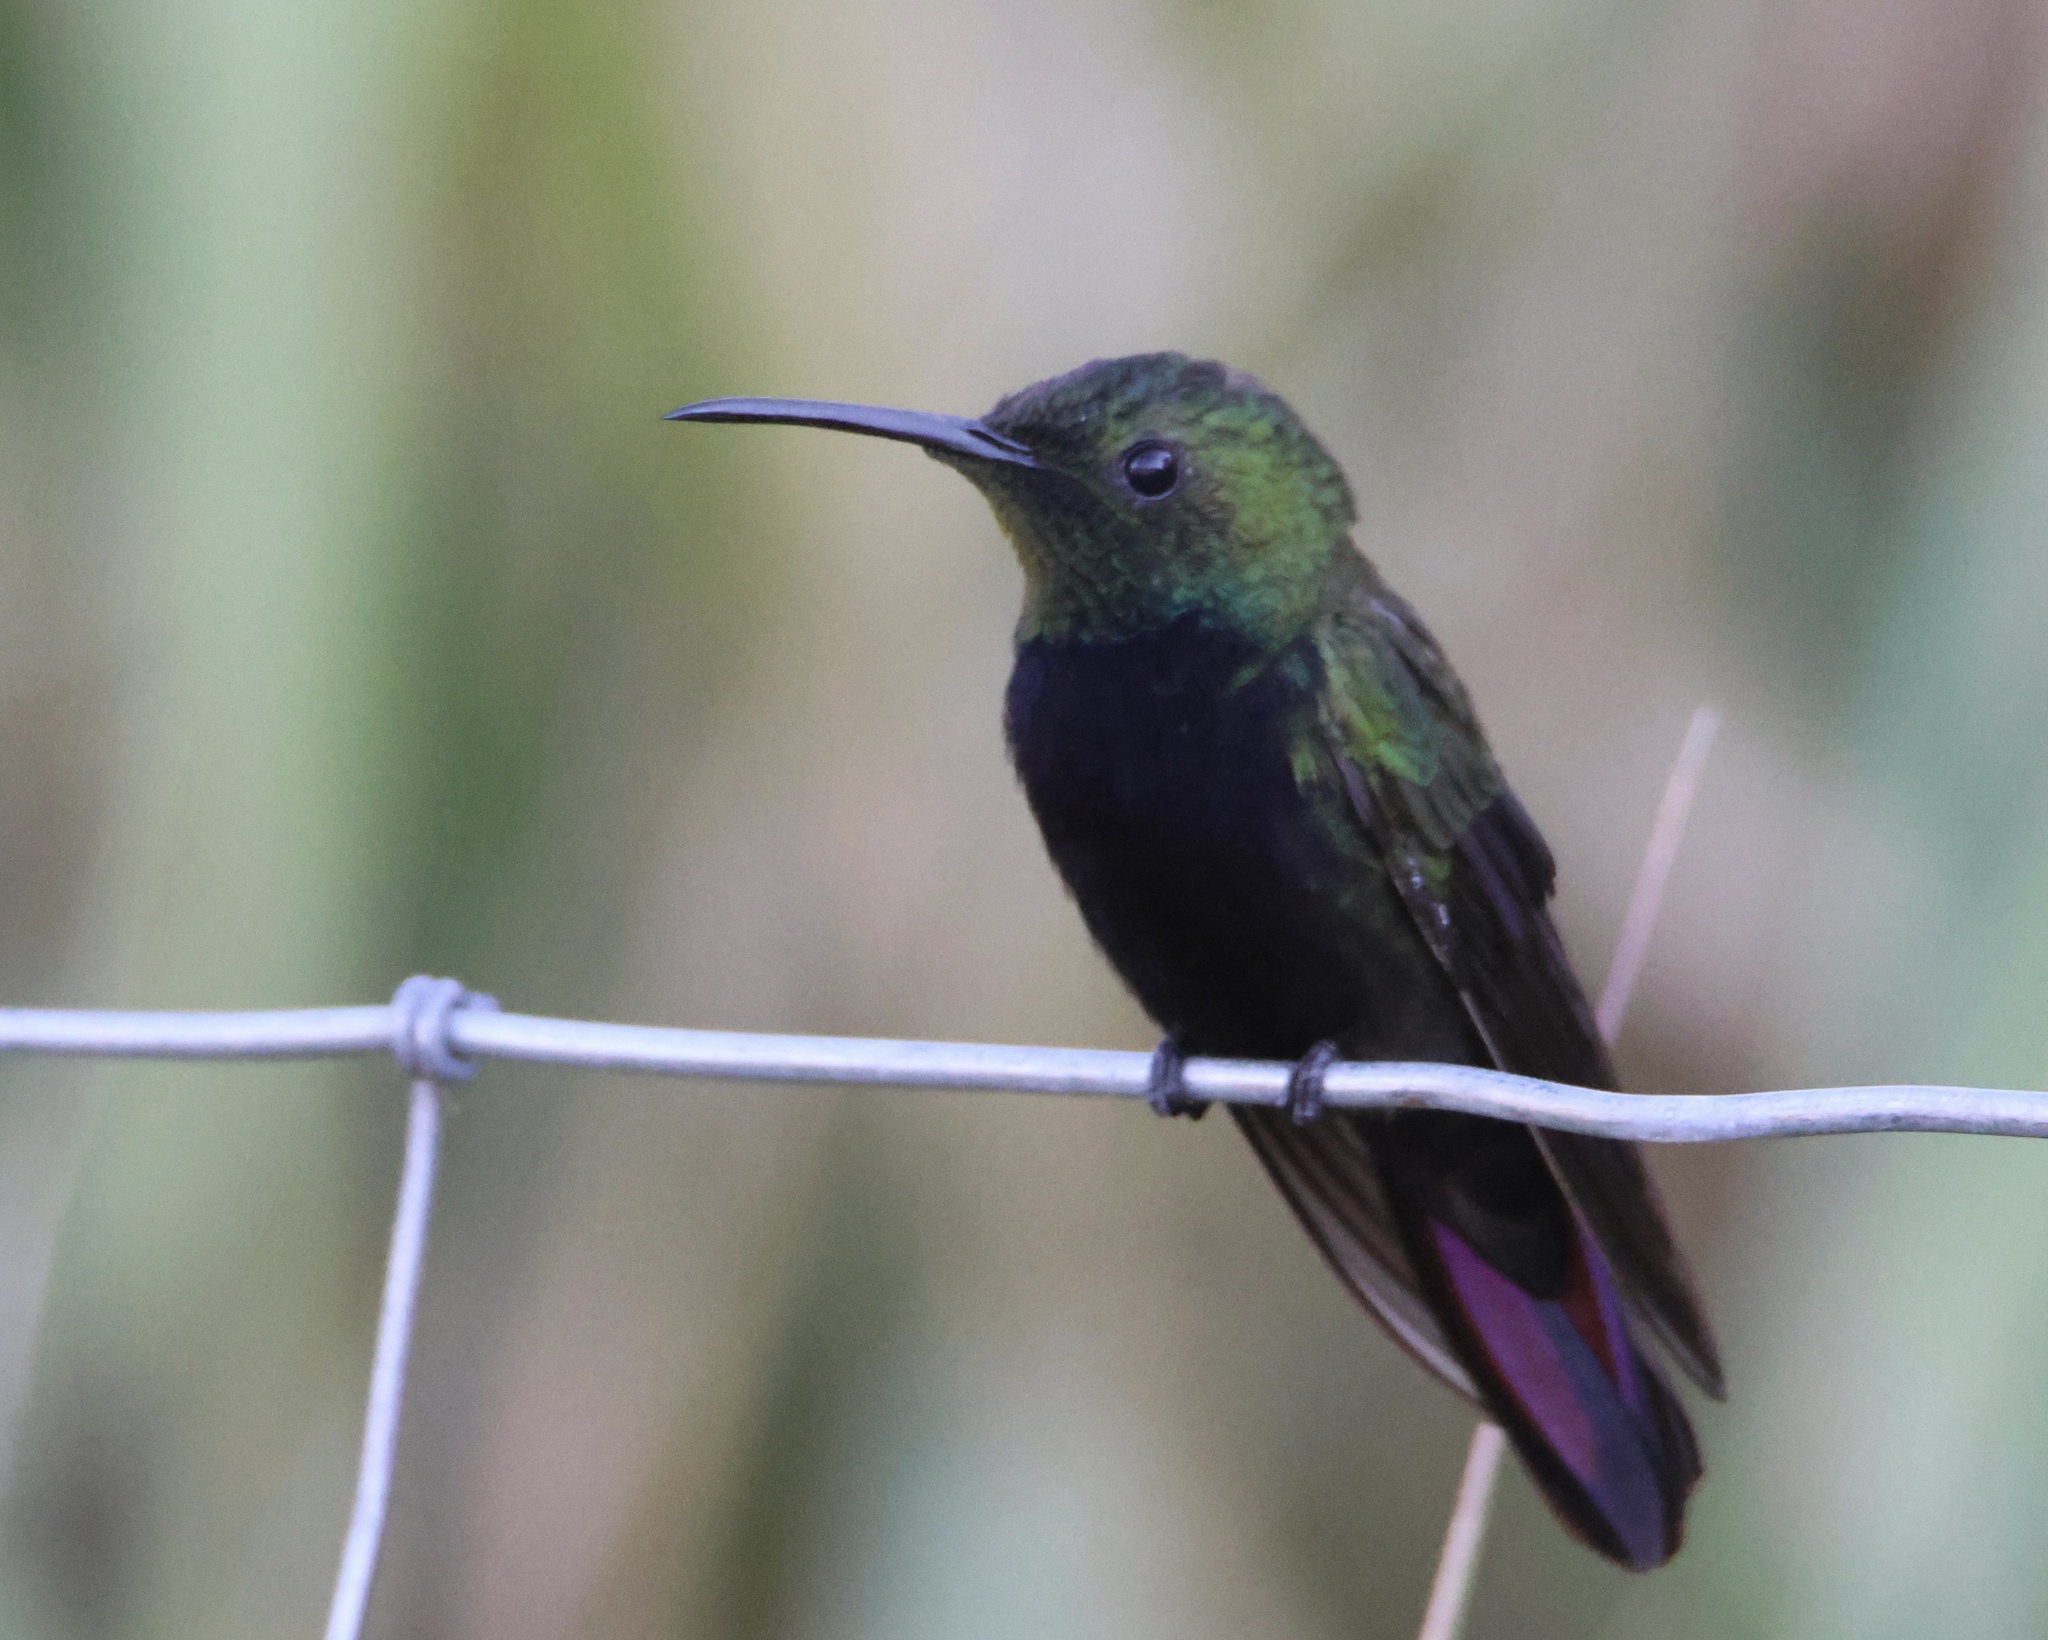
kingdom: Animalia
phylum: Chordata
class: Aves
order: Apodiformes
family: Trochilidae
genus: Anthracothorax
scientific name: Anthracothorax dominicus
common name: Antillean mango
